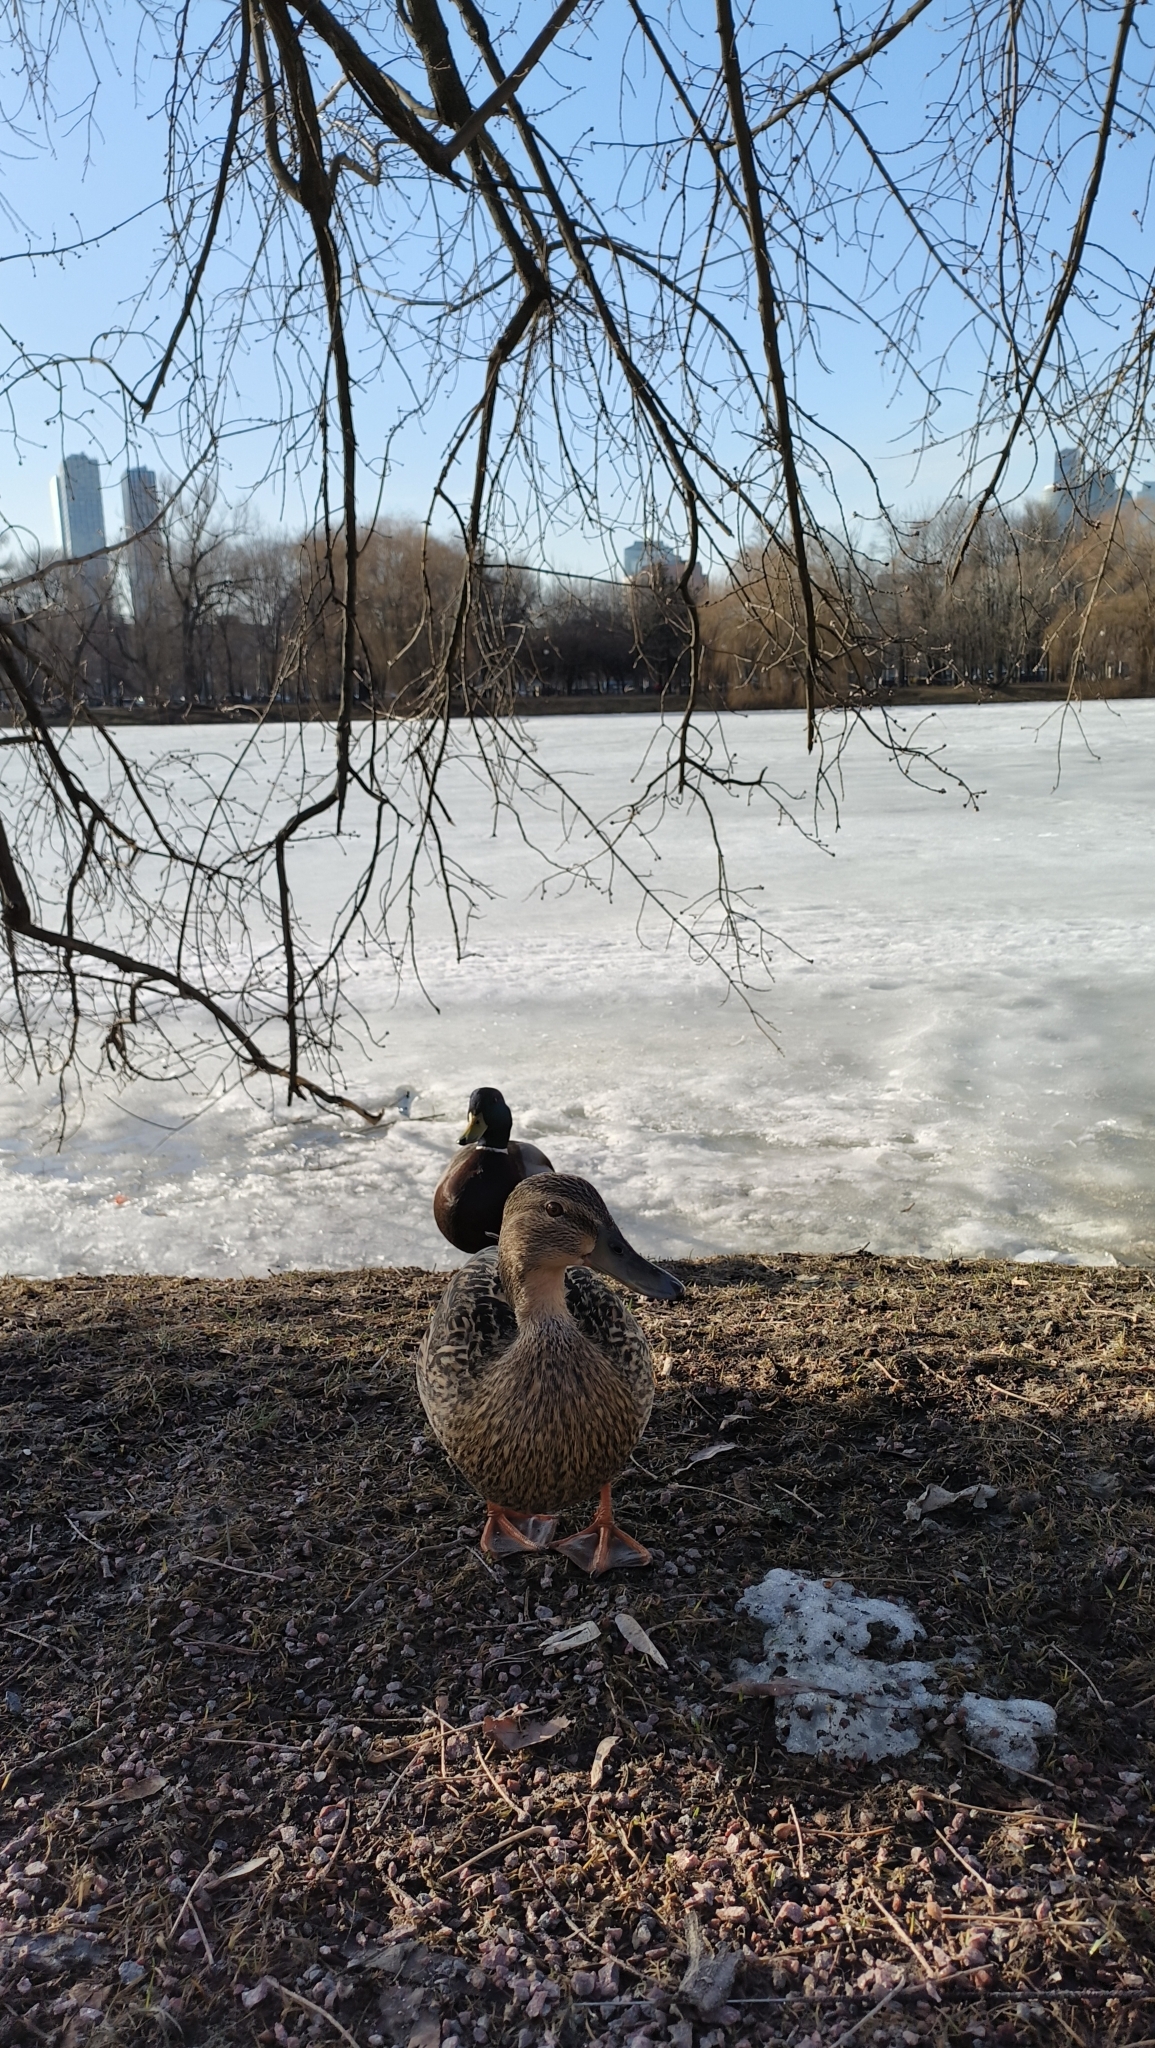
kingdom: Animalia
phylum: Chordata
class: Aves
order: Anseriformes
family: Anatidae
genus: Anas
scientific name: Anas platyrhynchos
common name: Mallard
